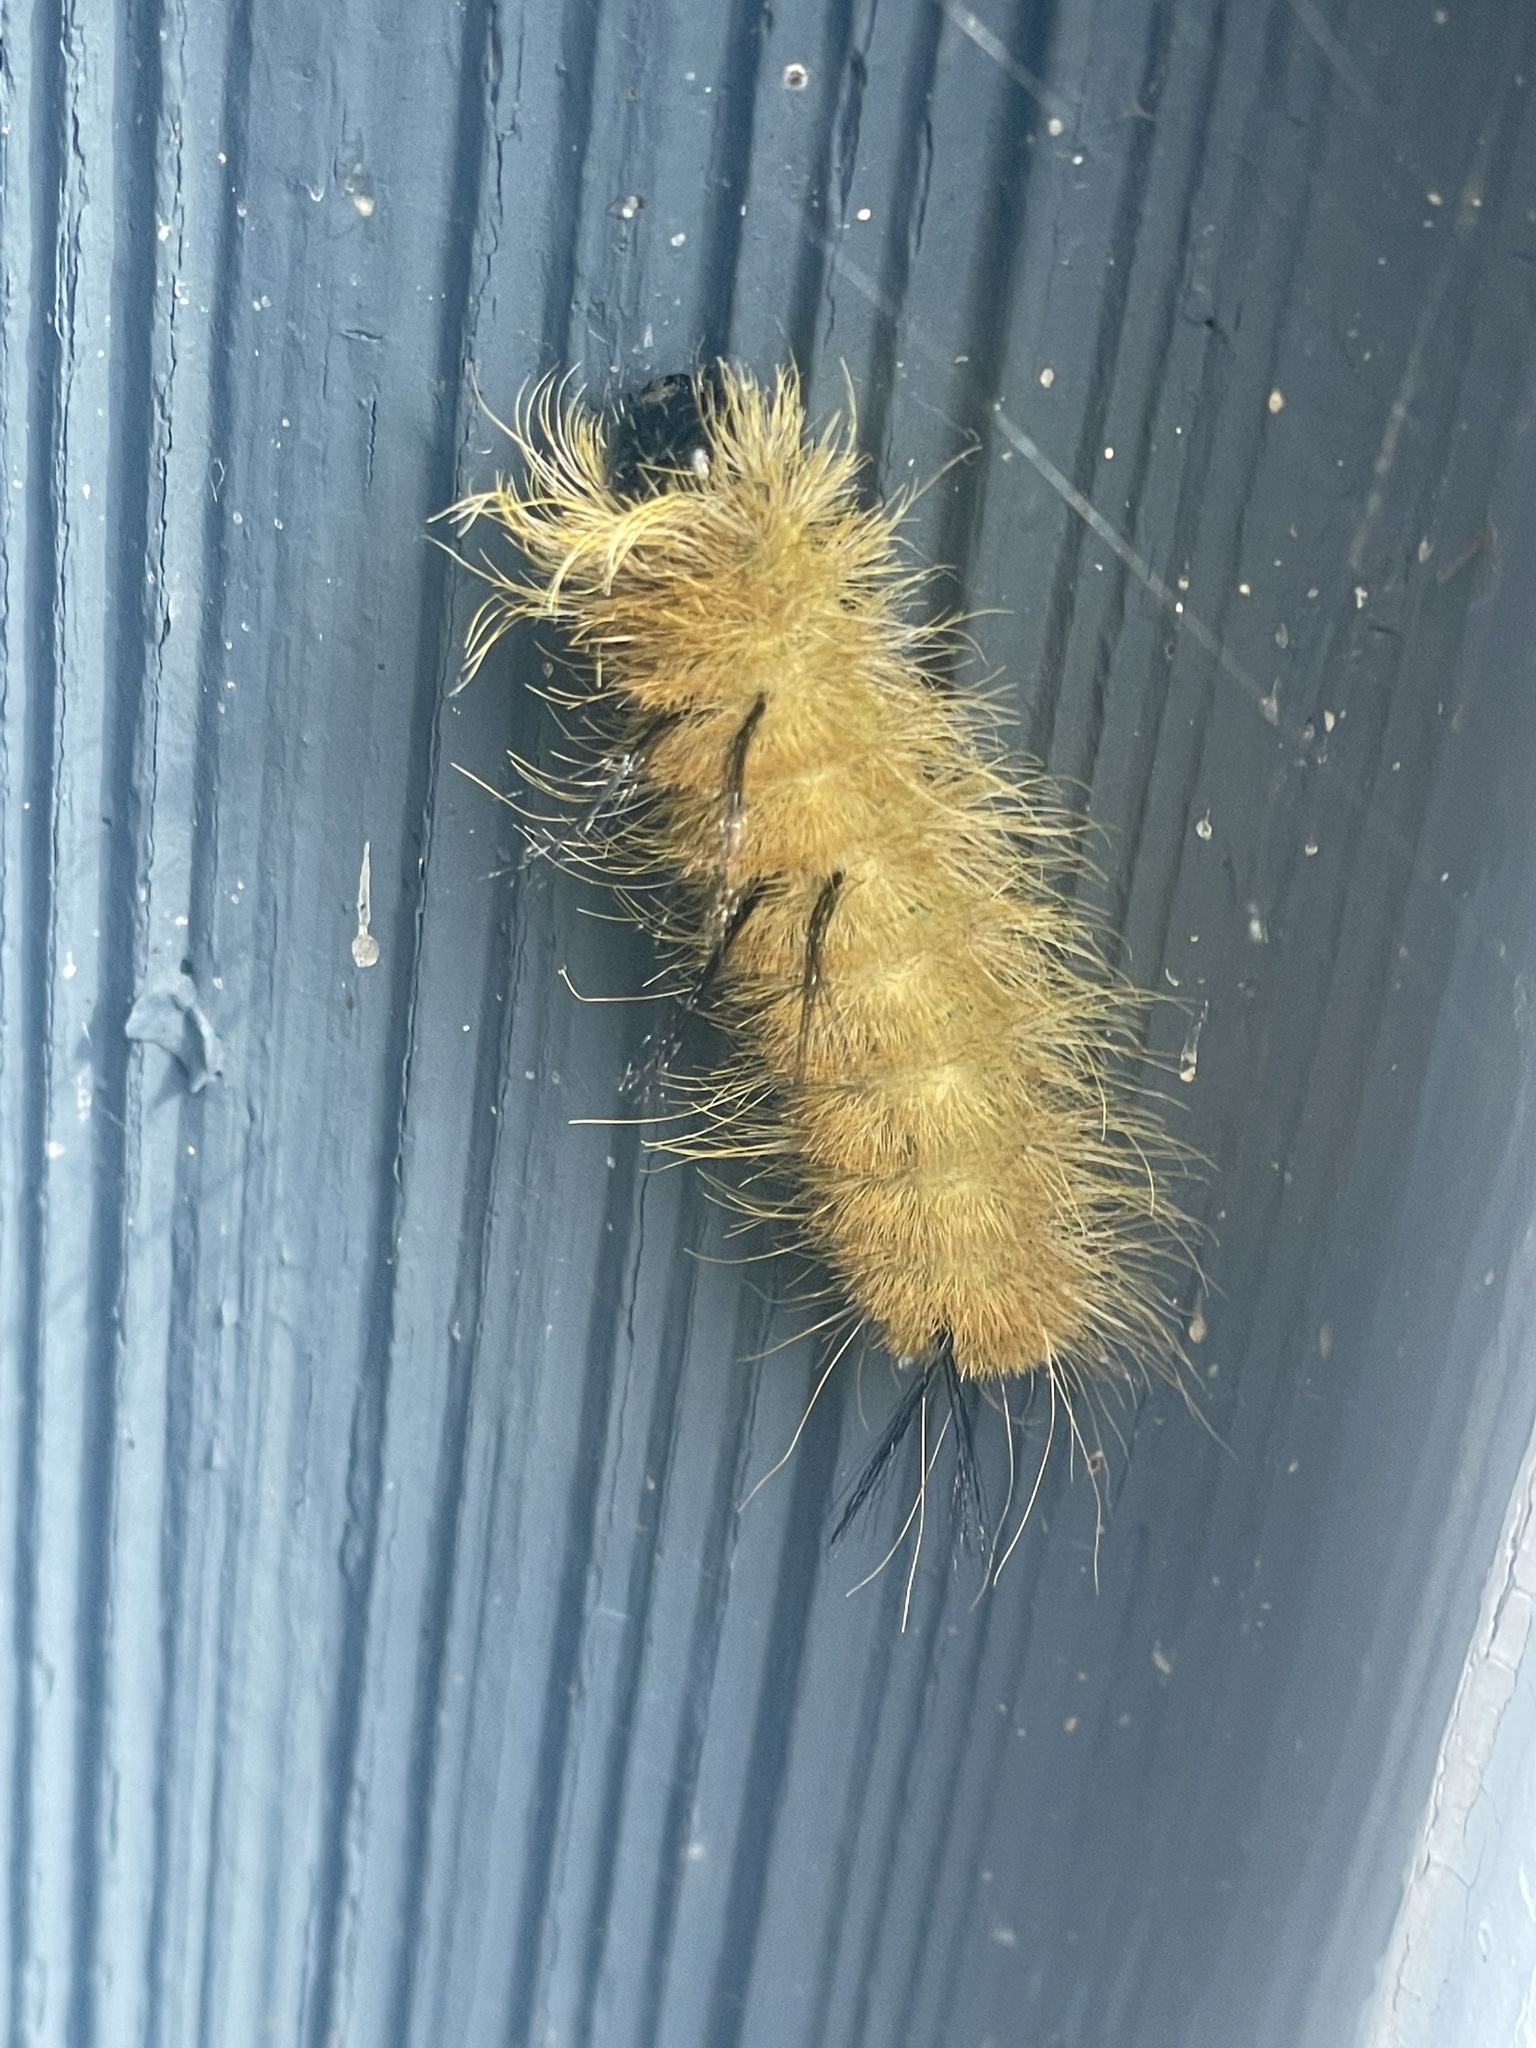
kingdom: Animalia
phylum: Arthropoda
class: Insecta
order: Lepidoptera
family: Noctuidae
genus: Acronicta
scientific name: Acronicta americana
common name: American dagger
